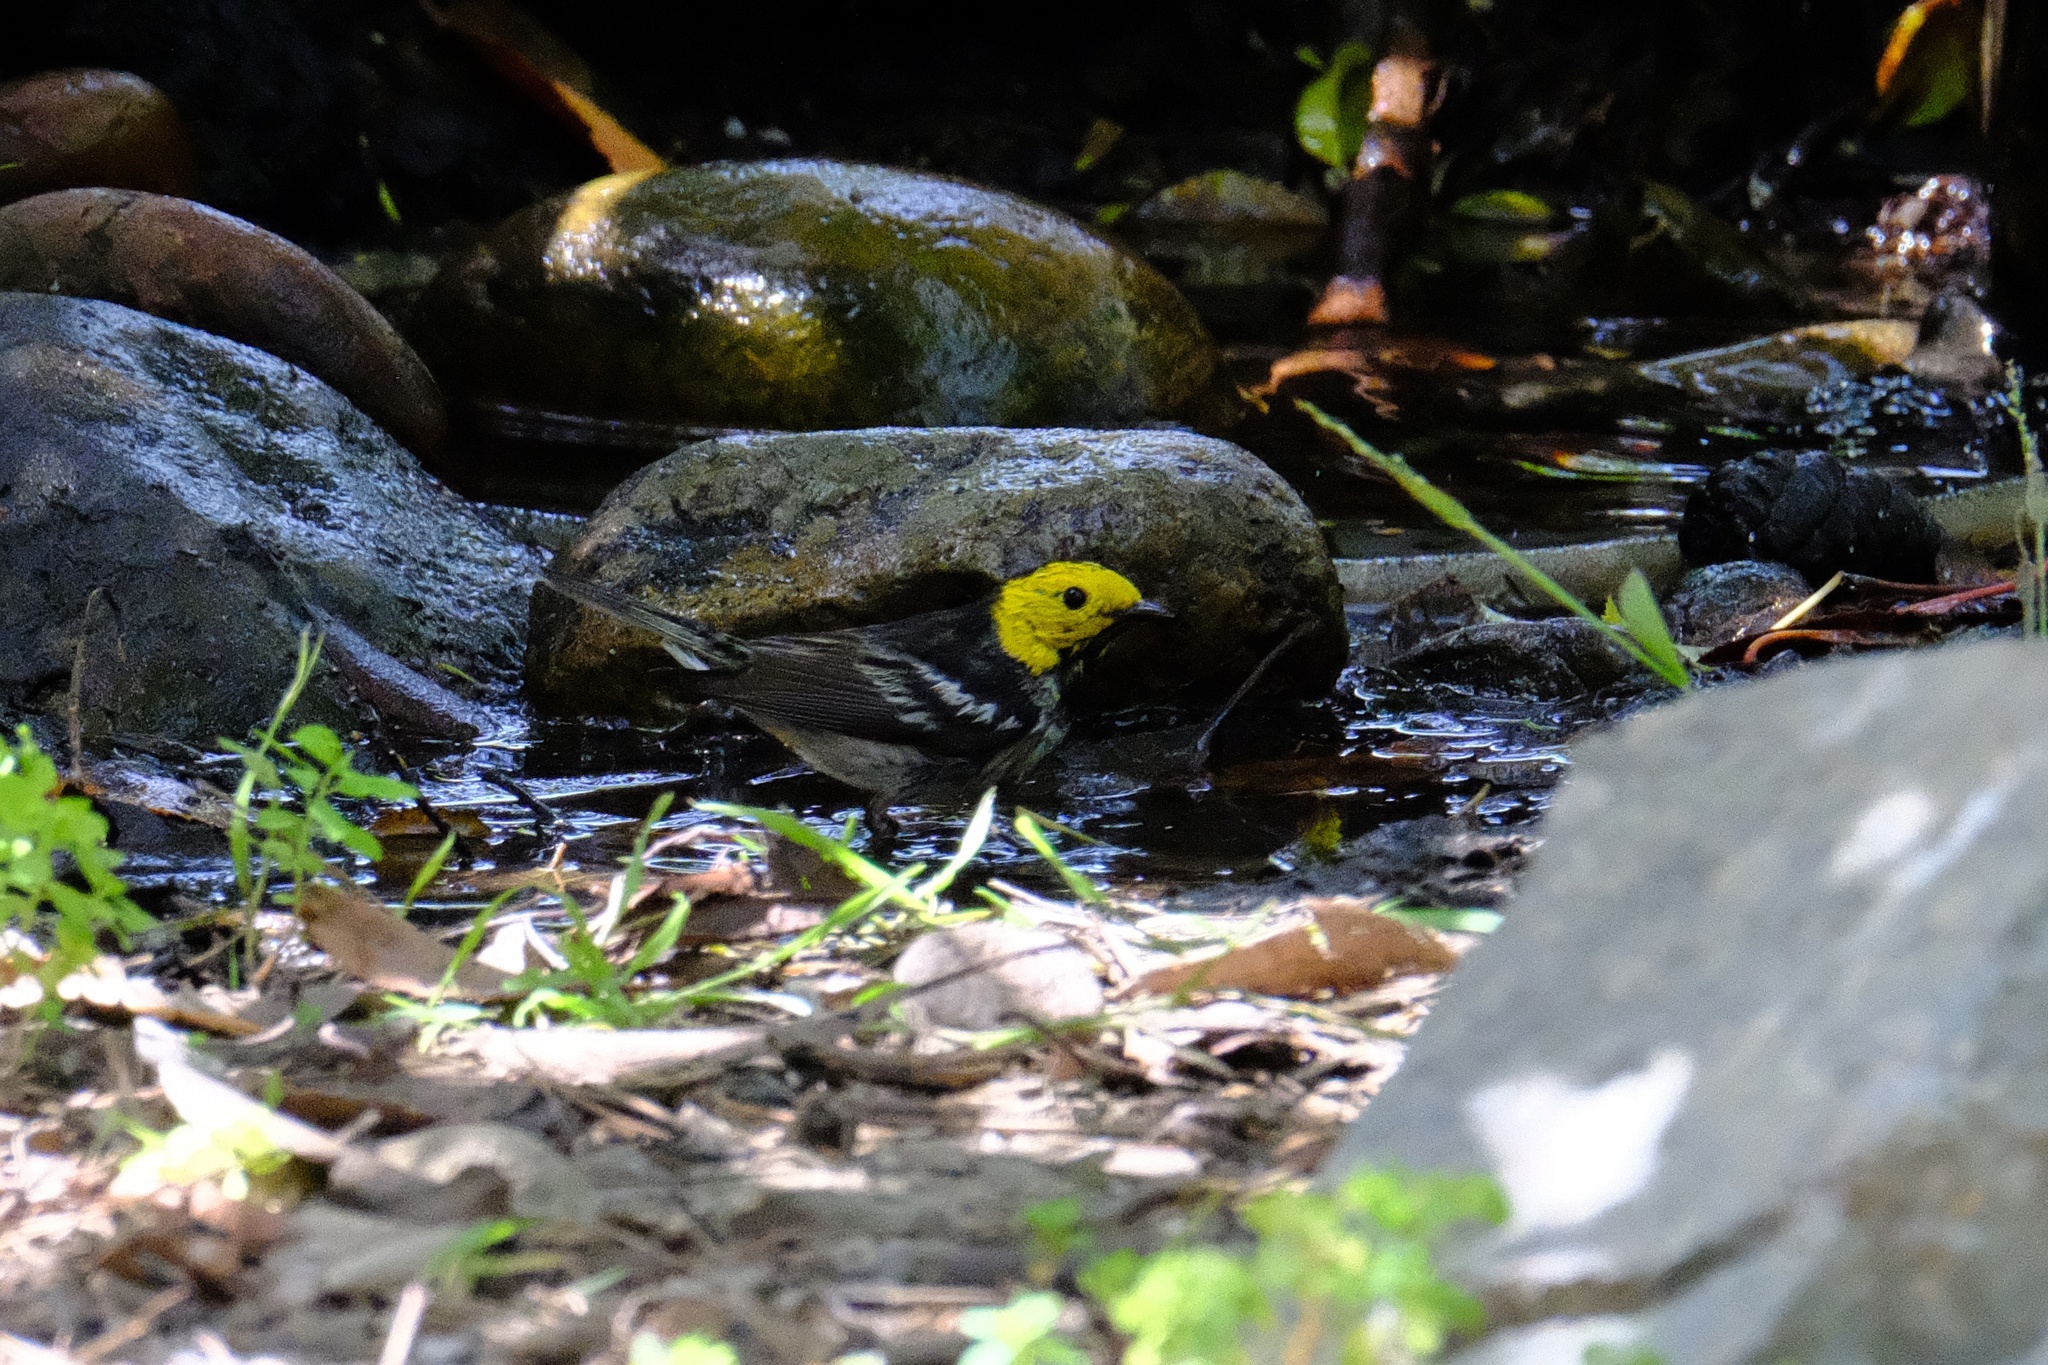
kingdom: Animalia
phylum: Chordata
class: Aves
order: Passeriformes
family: Parulidae
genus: Setophaga
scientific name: Setophaga occidentalis
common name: Hermit warbler
